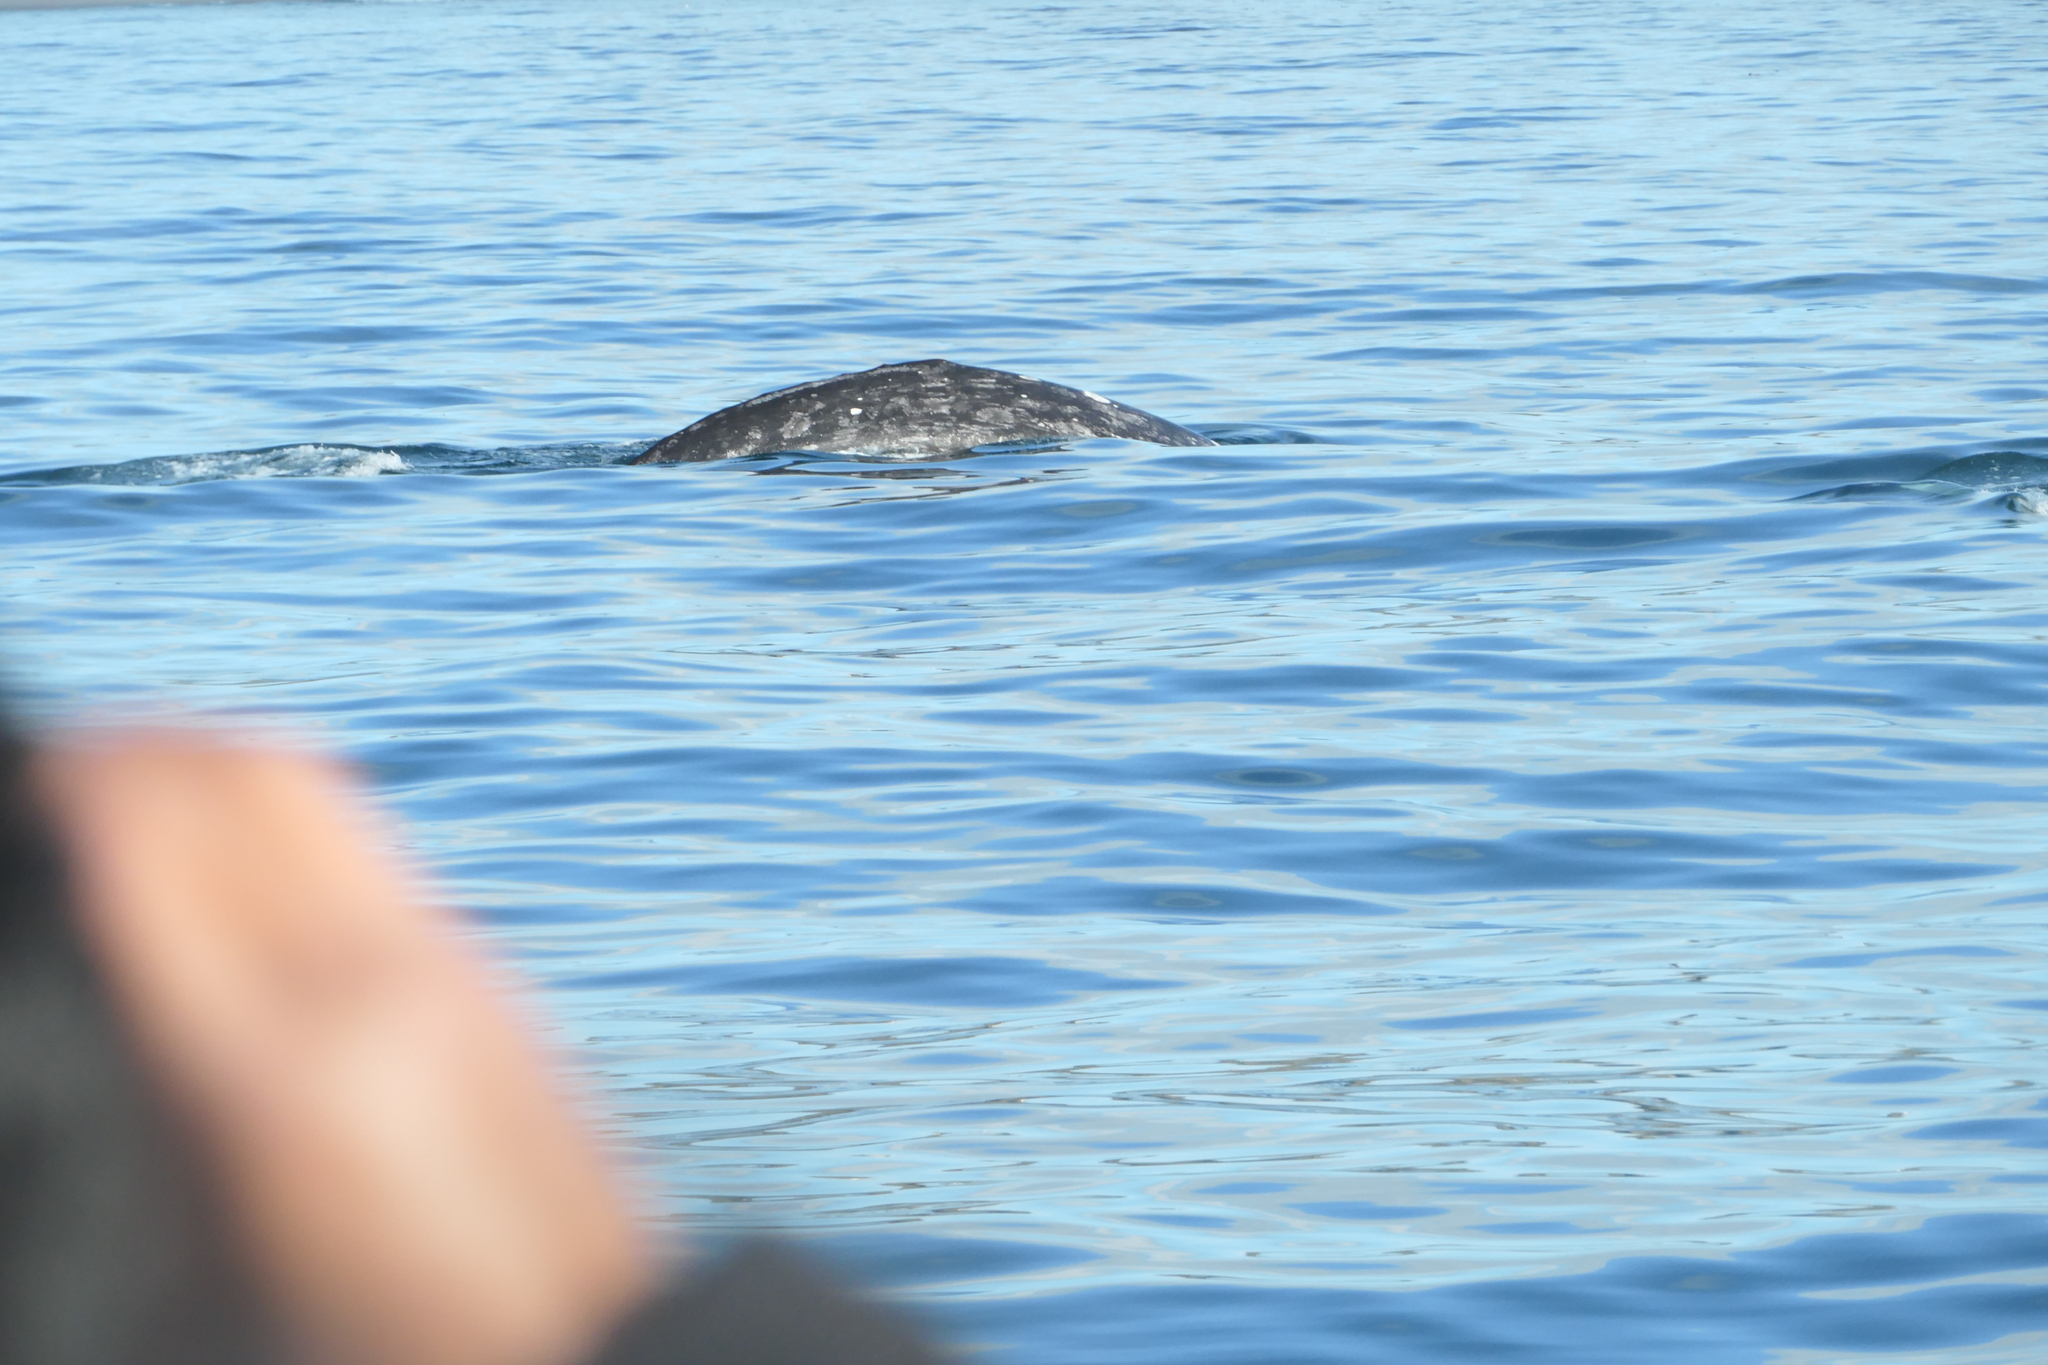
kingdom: Animalia
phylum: Chordata
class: Mammalia
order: Cetacea
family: Eschrichtiidae
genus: Eschrichtius
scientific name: Eschrichtius robustus
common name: Gray whale
